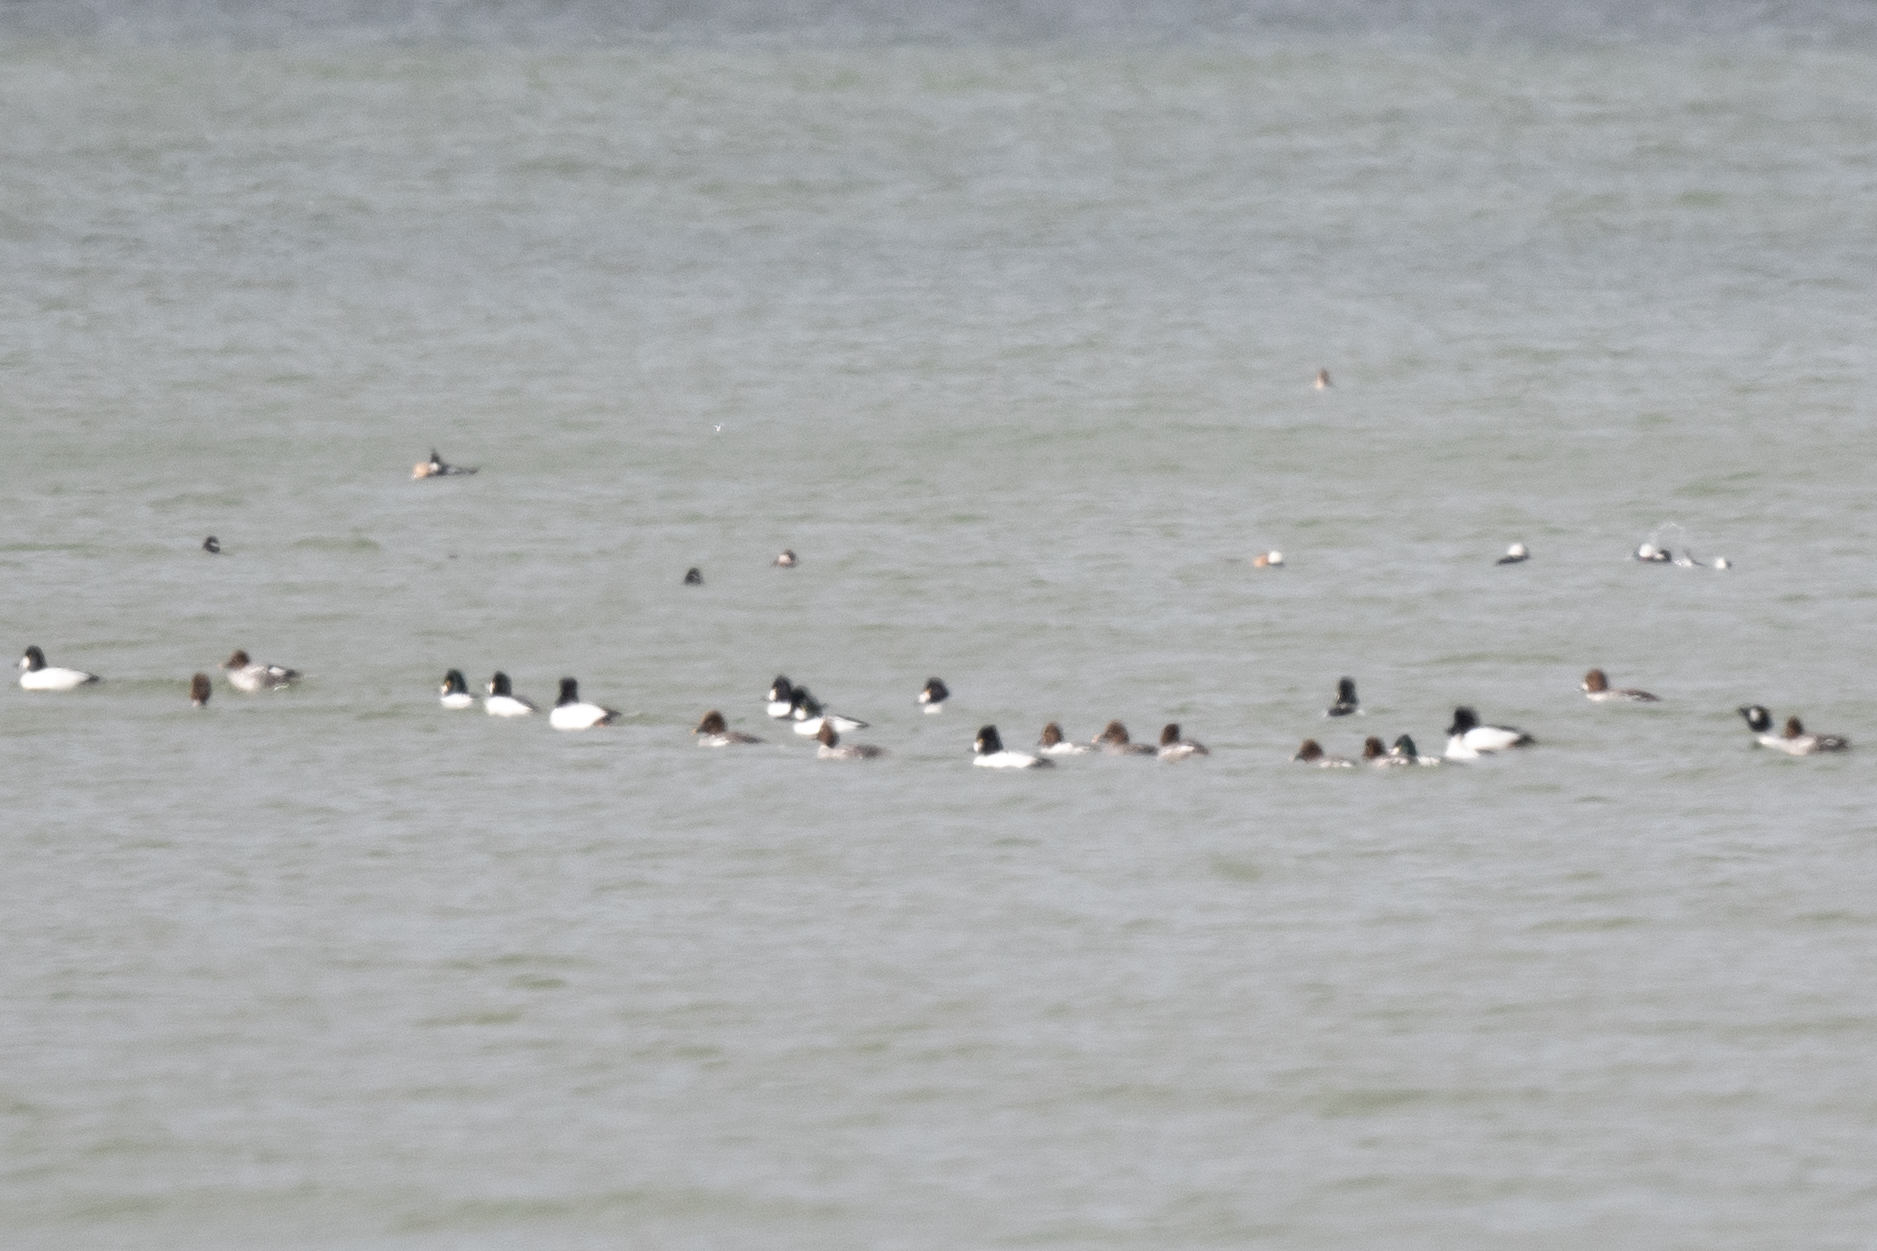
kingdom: Animalia
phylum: Chordata
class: Aves
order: Anseriformes
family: Anatidae
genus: Bucephala
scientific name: Bucephala clangula
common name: Common goldeneye
